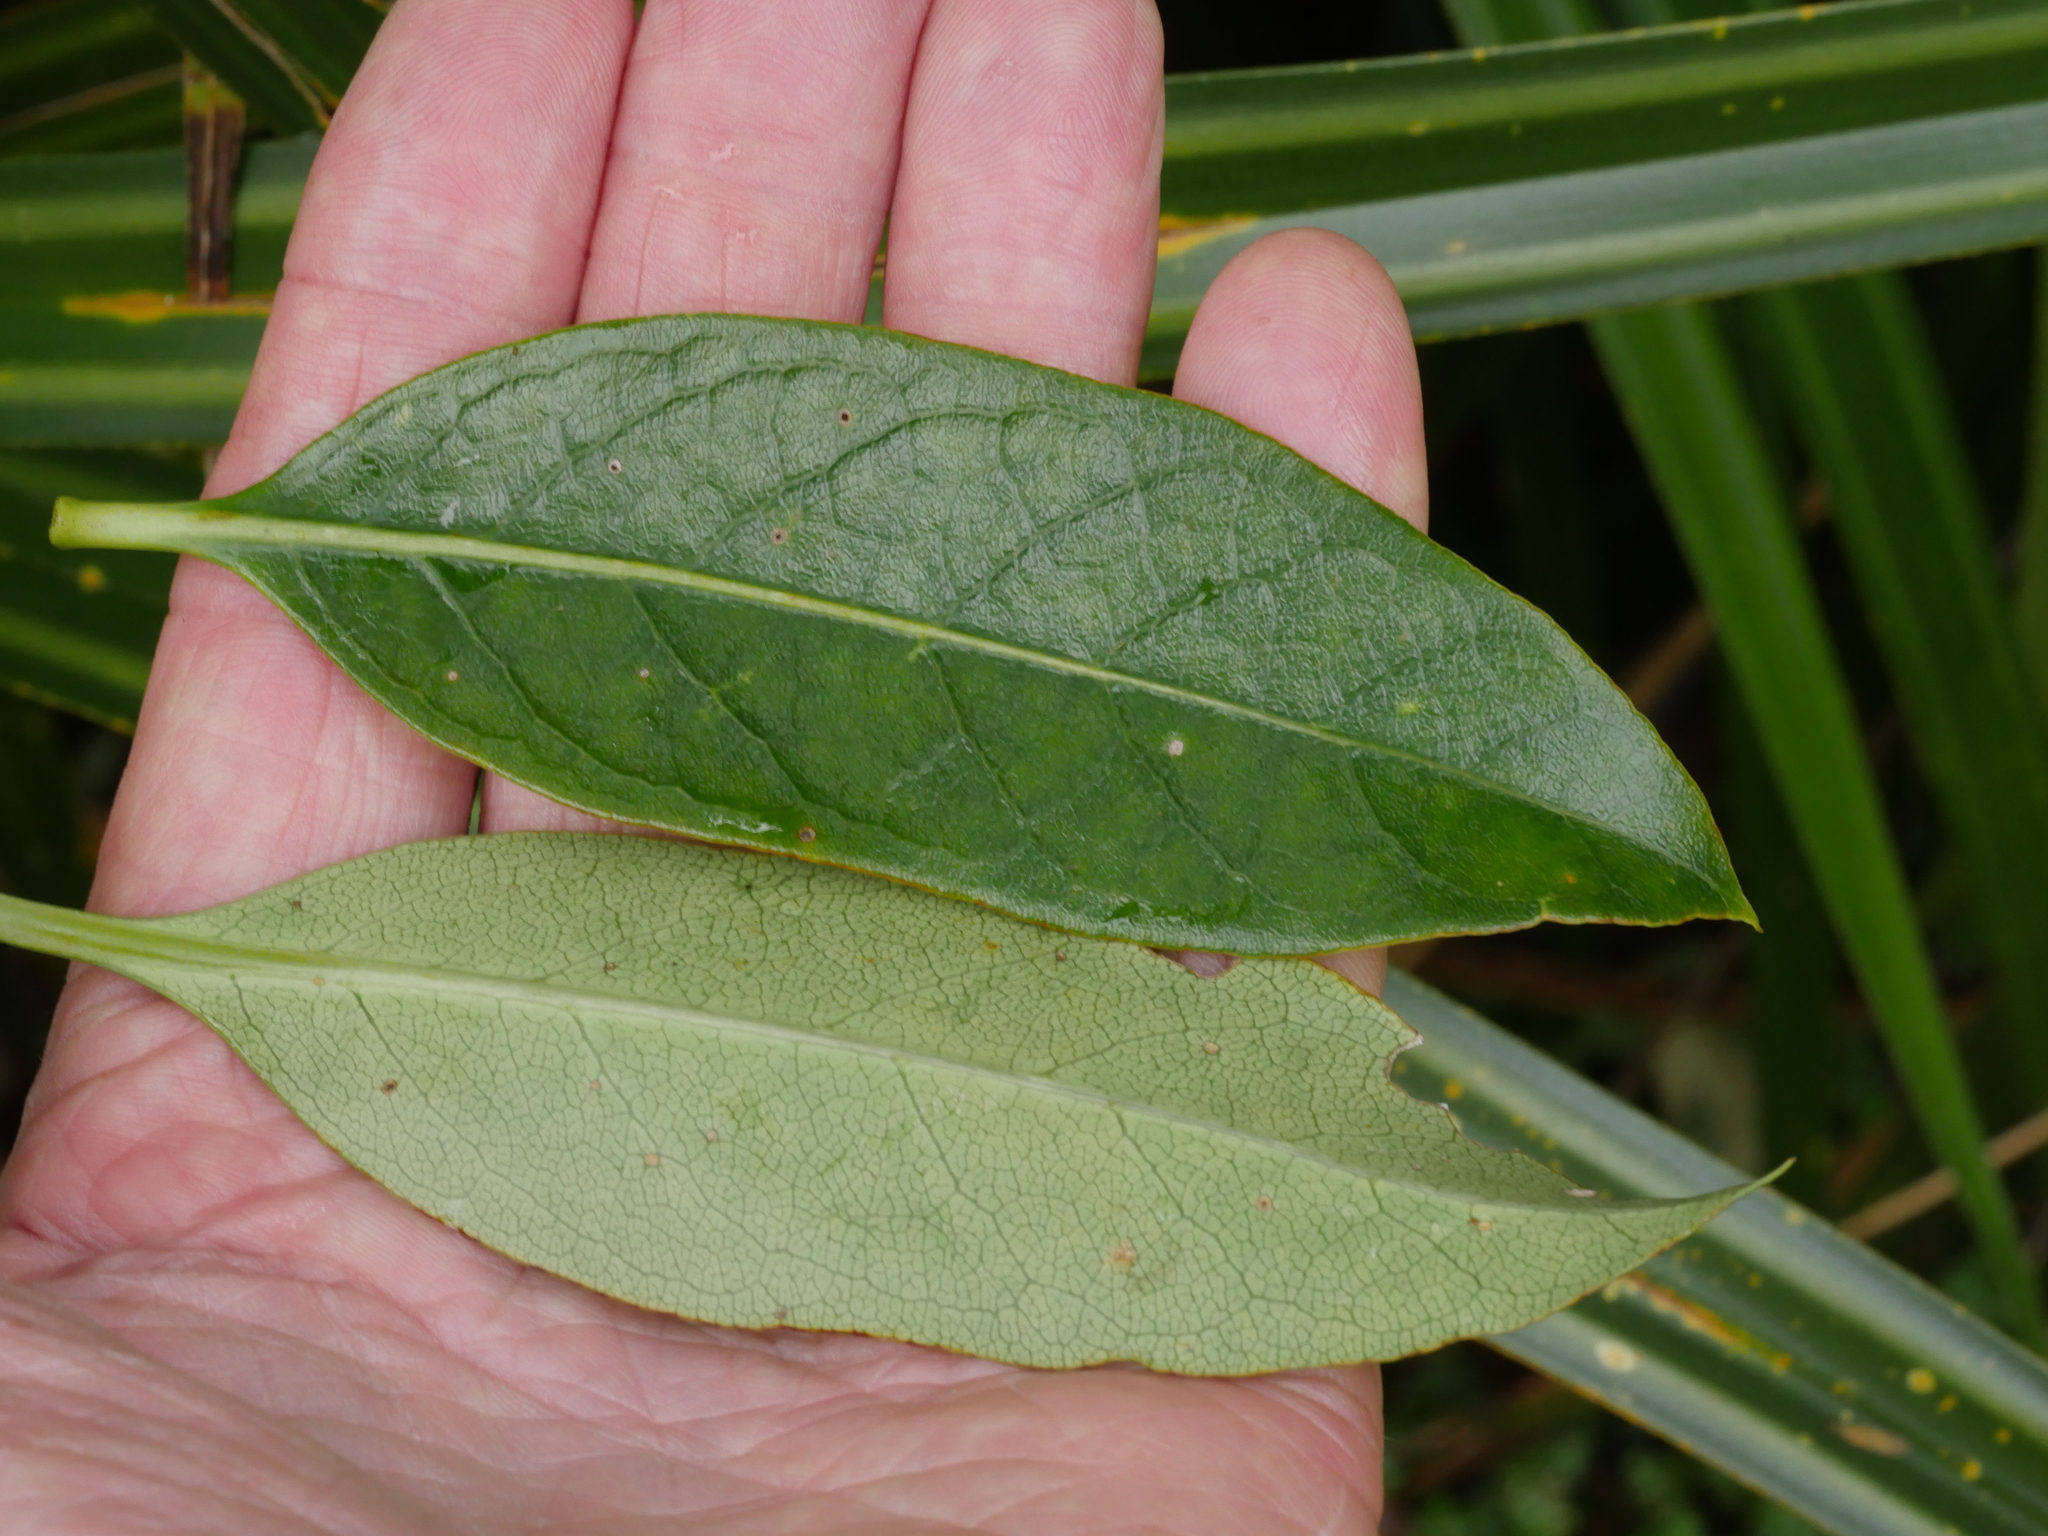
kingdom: Plantae
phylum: Tracheophyta
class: Magnoliopsida
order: Gentianales
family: Rubiaceae
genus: Coprosma
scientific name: Coprosma lucida
